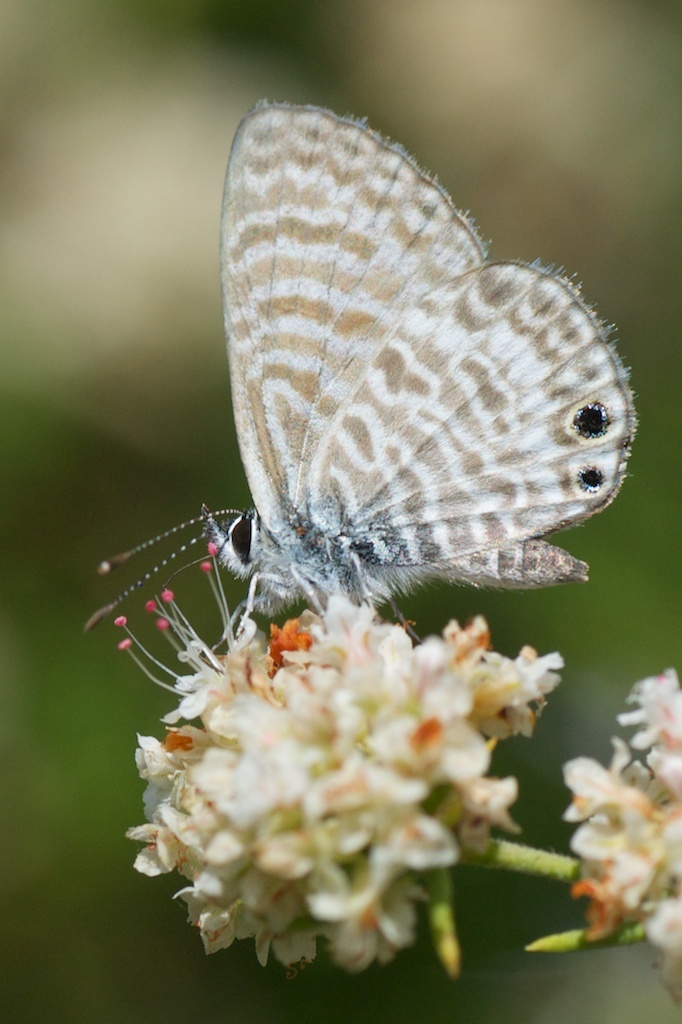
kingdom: Animalia
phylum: Arthropoda
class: Insecta
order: Lepidoptera
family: Lycaenidae
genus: Leptotes
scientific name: Leptotes marina
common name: Marine blue
